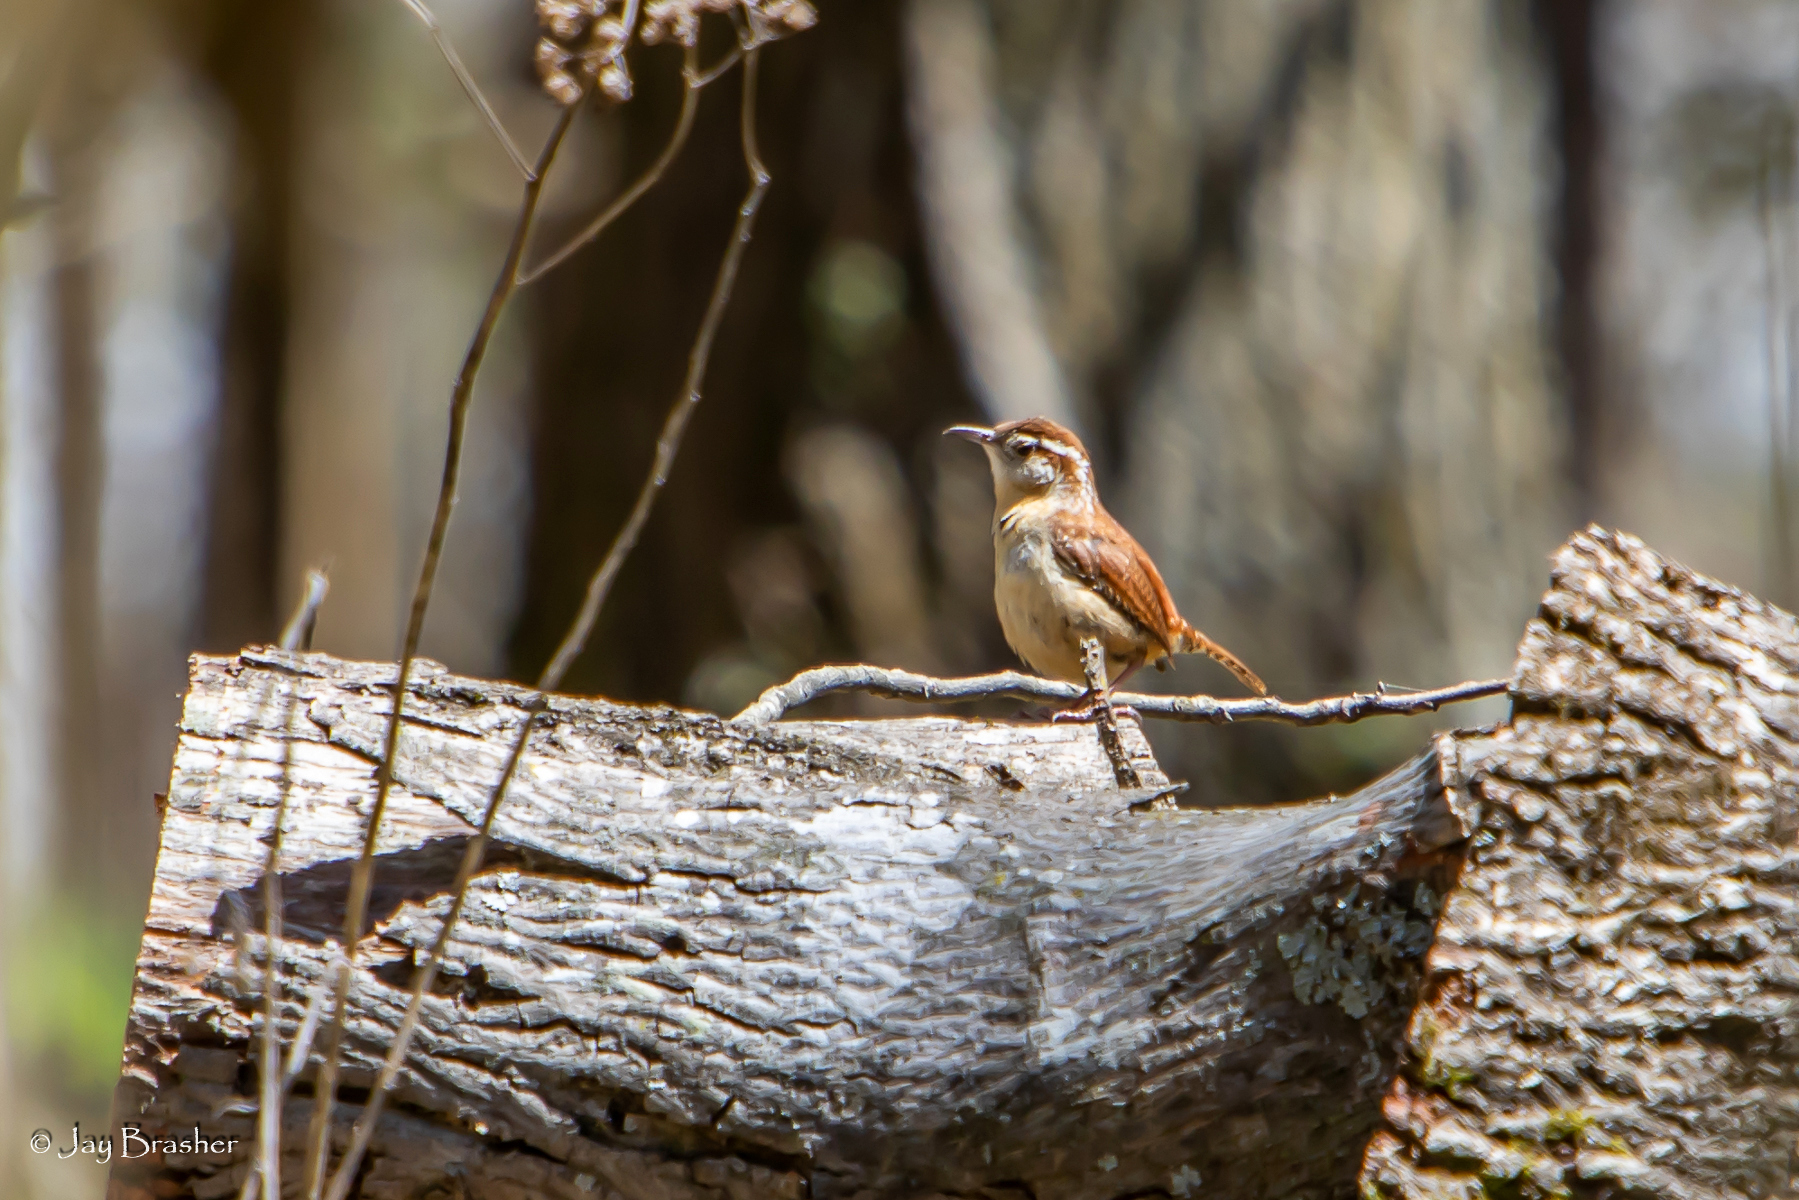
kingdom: Animalia
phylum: Chordata
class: Aves
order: Passeriformes
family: Troglodytidae
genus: Thryothorus
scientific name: Thryothorus ludovicianus
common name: Carolina wren
